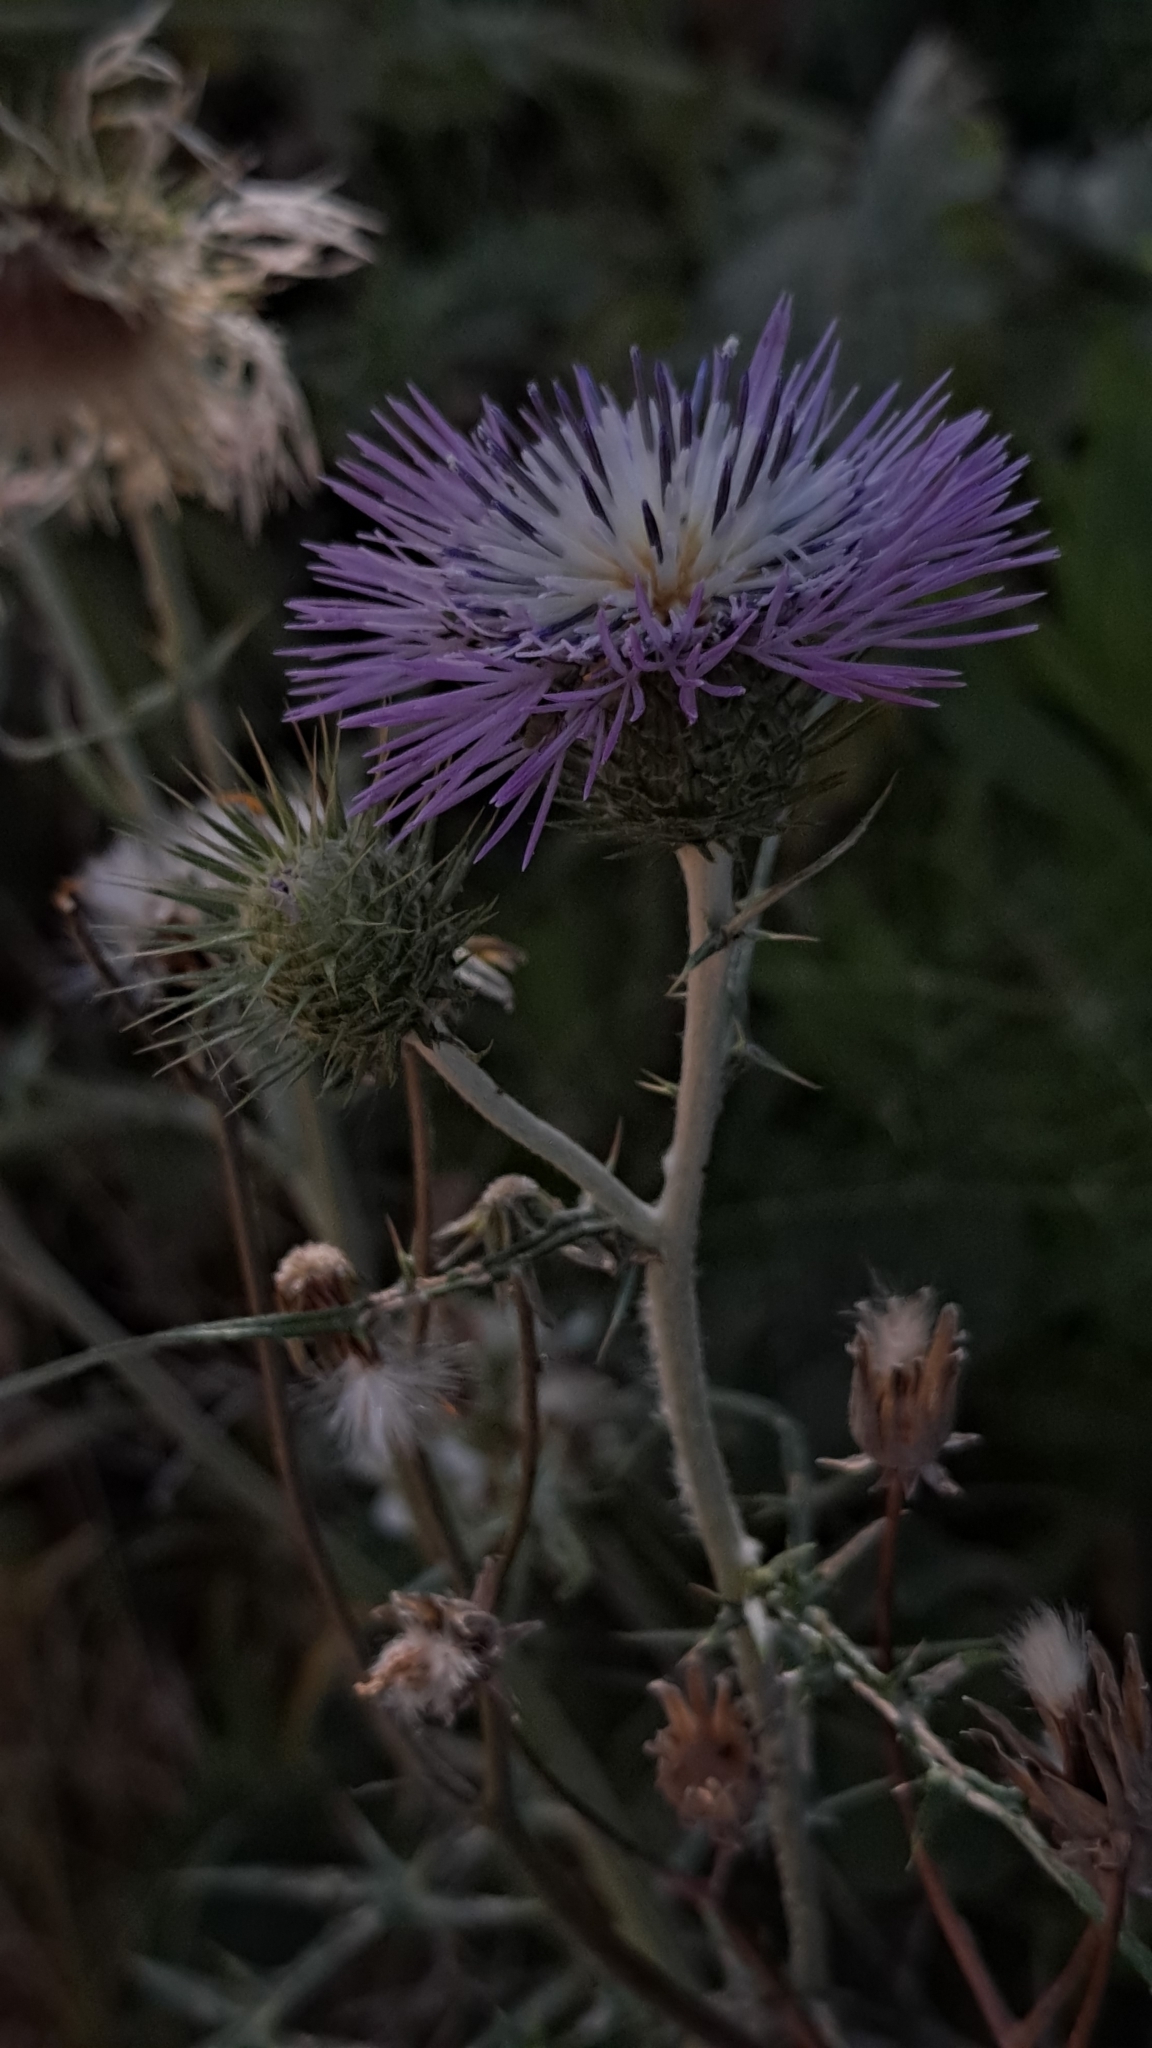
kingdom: Plantae
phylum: Tracheophyta
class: Magnoliopsida
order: Asterales
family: Asteraceae
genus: Galactites
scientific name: Galactites tomentosa
